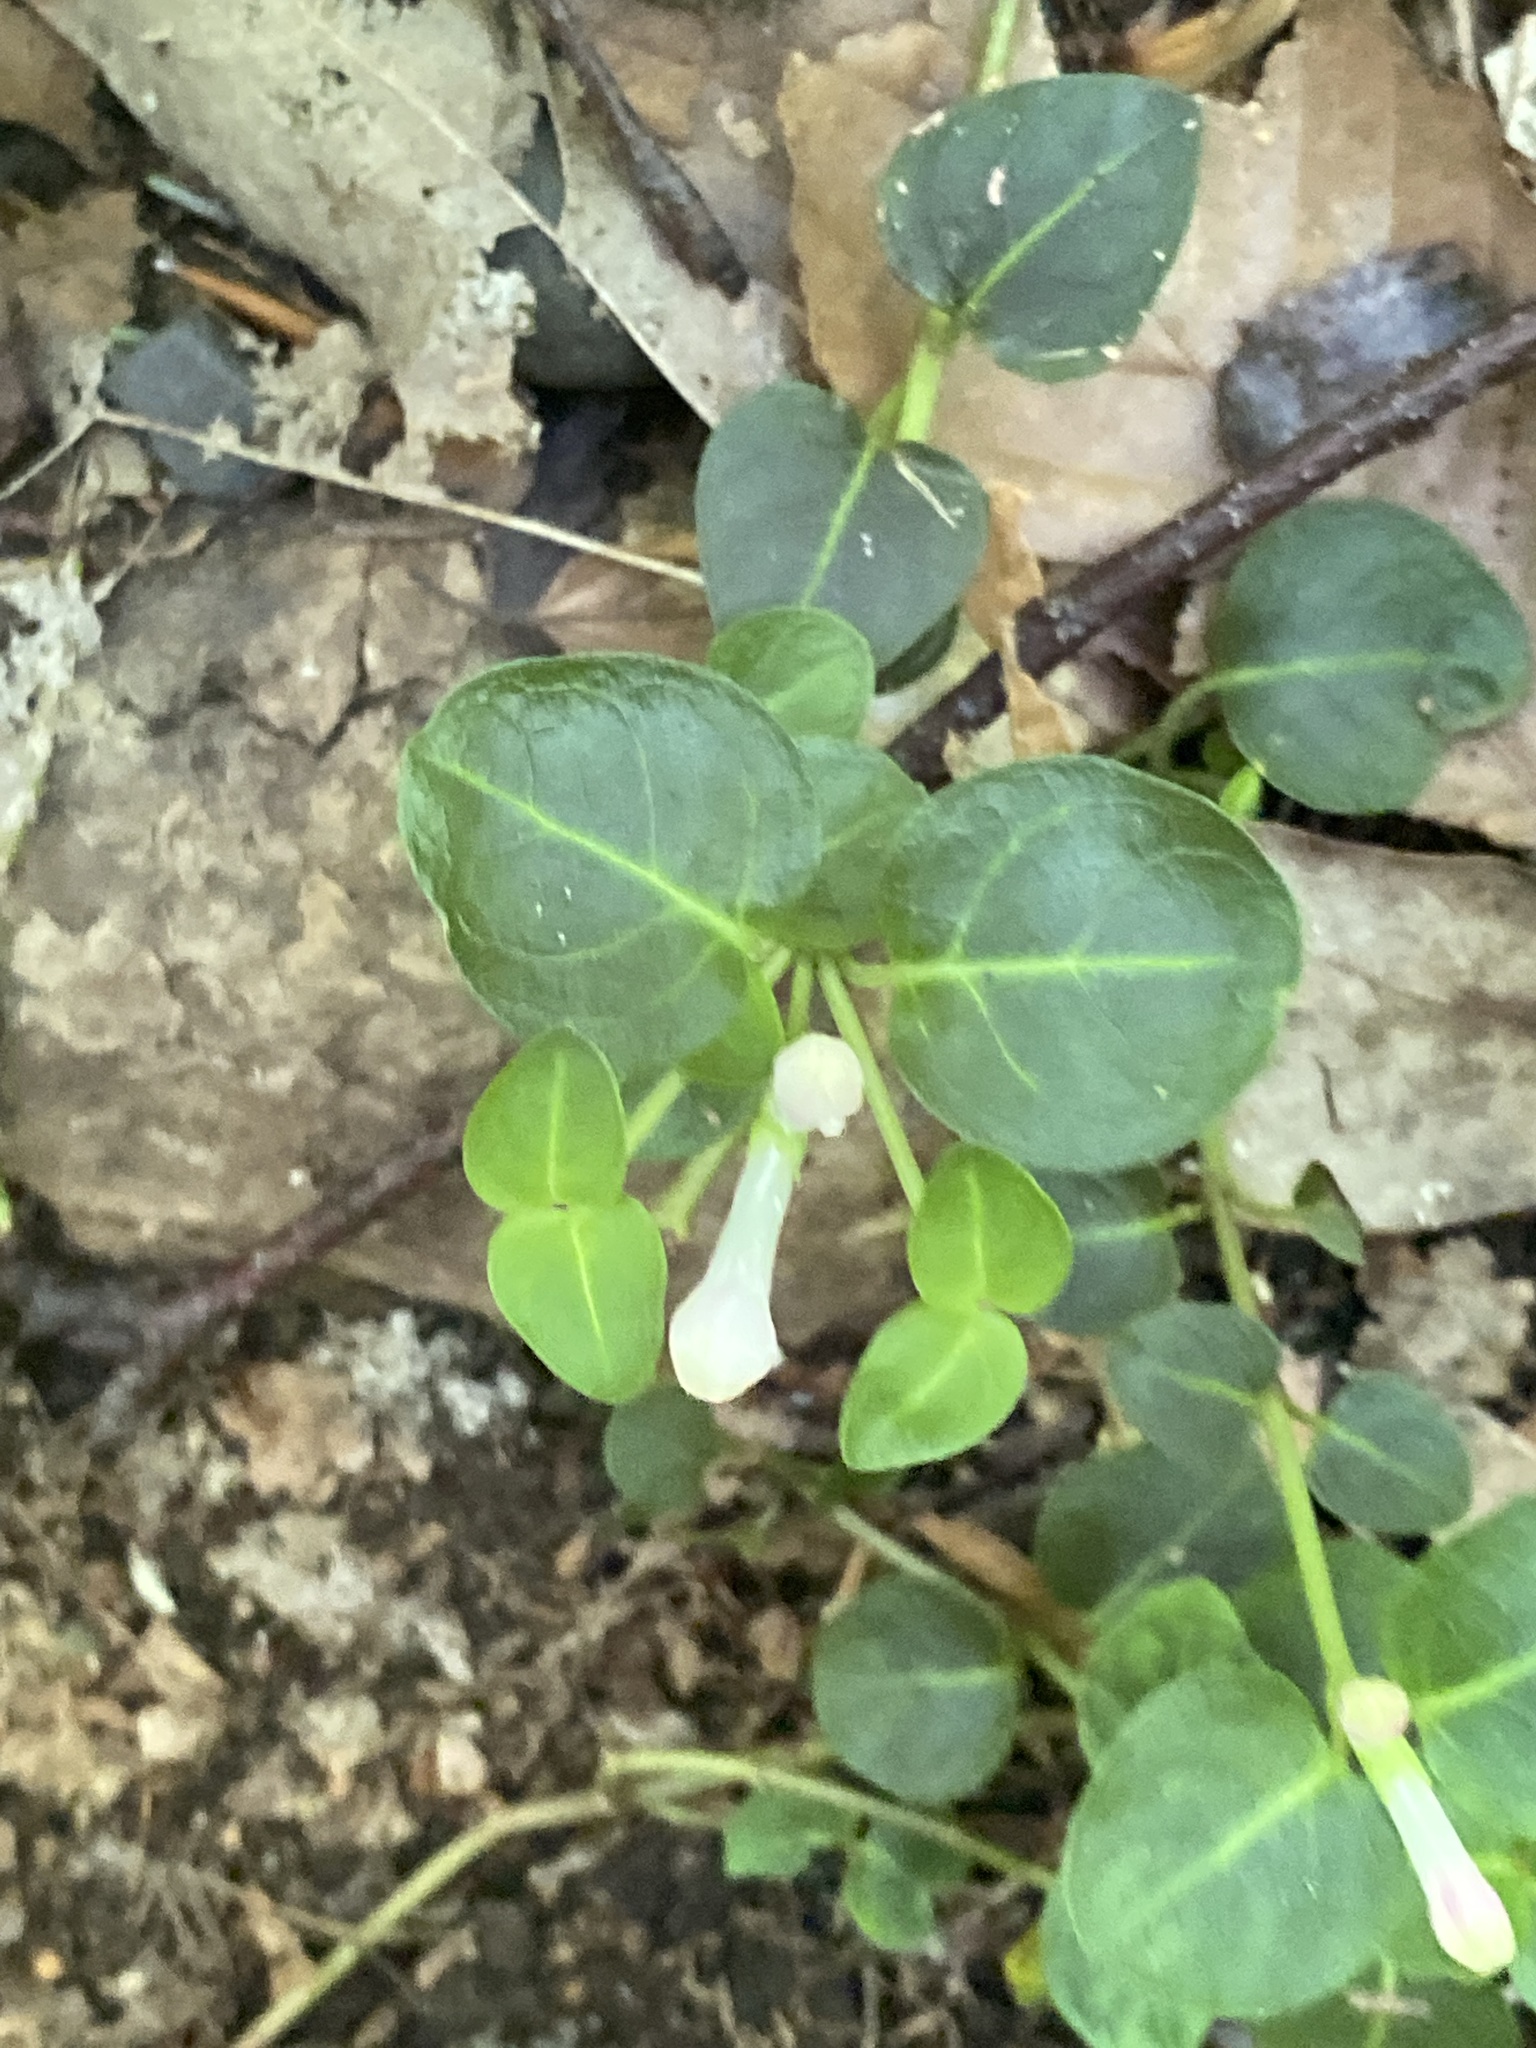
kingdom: Plantae
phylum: Tracheophyta
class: Magnoliopsida
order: Gentianales
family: Rubiaceae
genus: Mitchella
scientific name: Mitchella repens
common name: Partridge-berry
